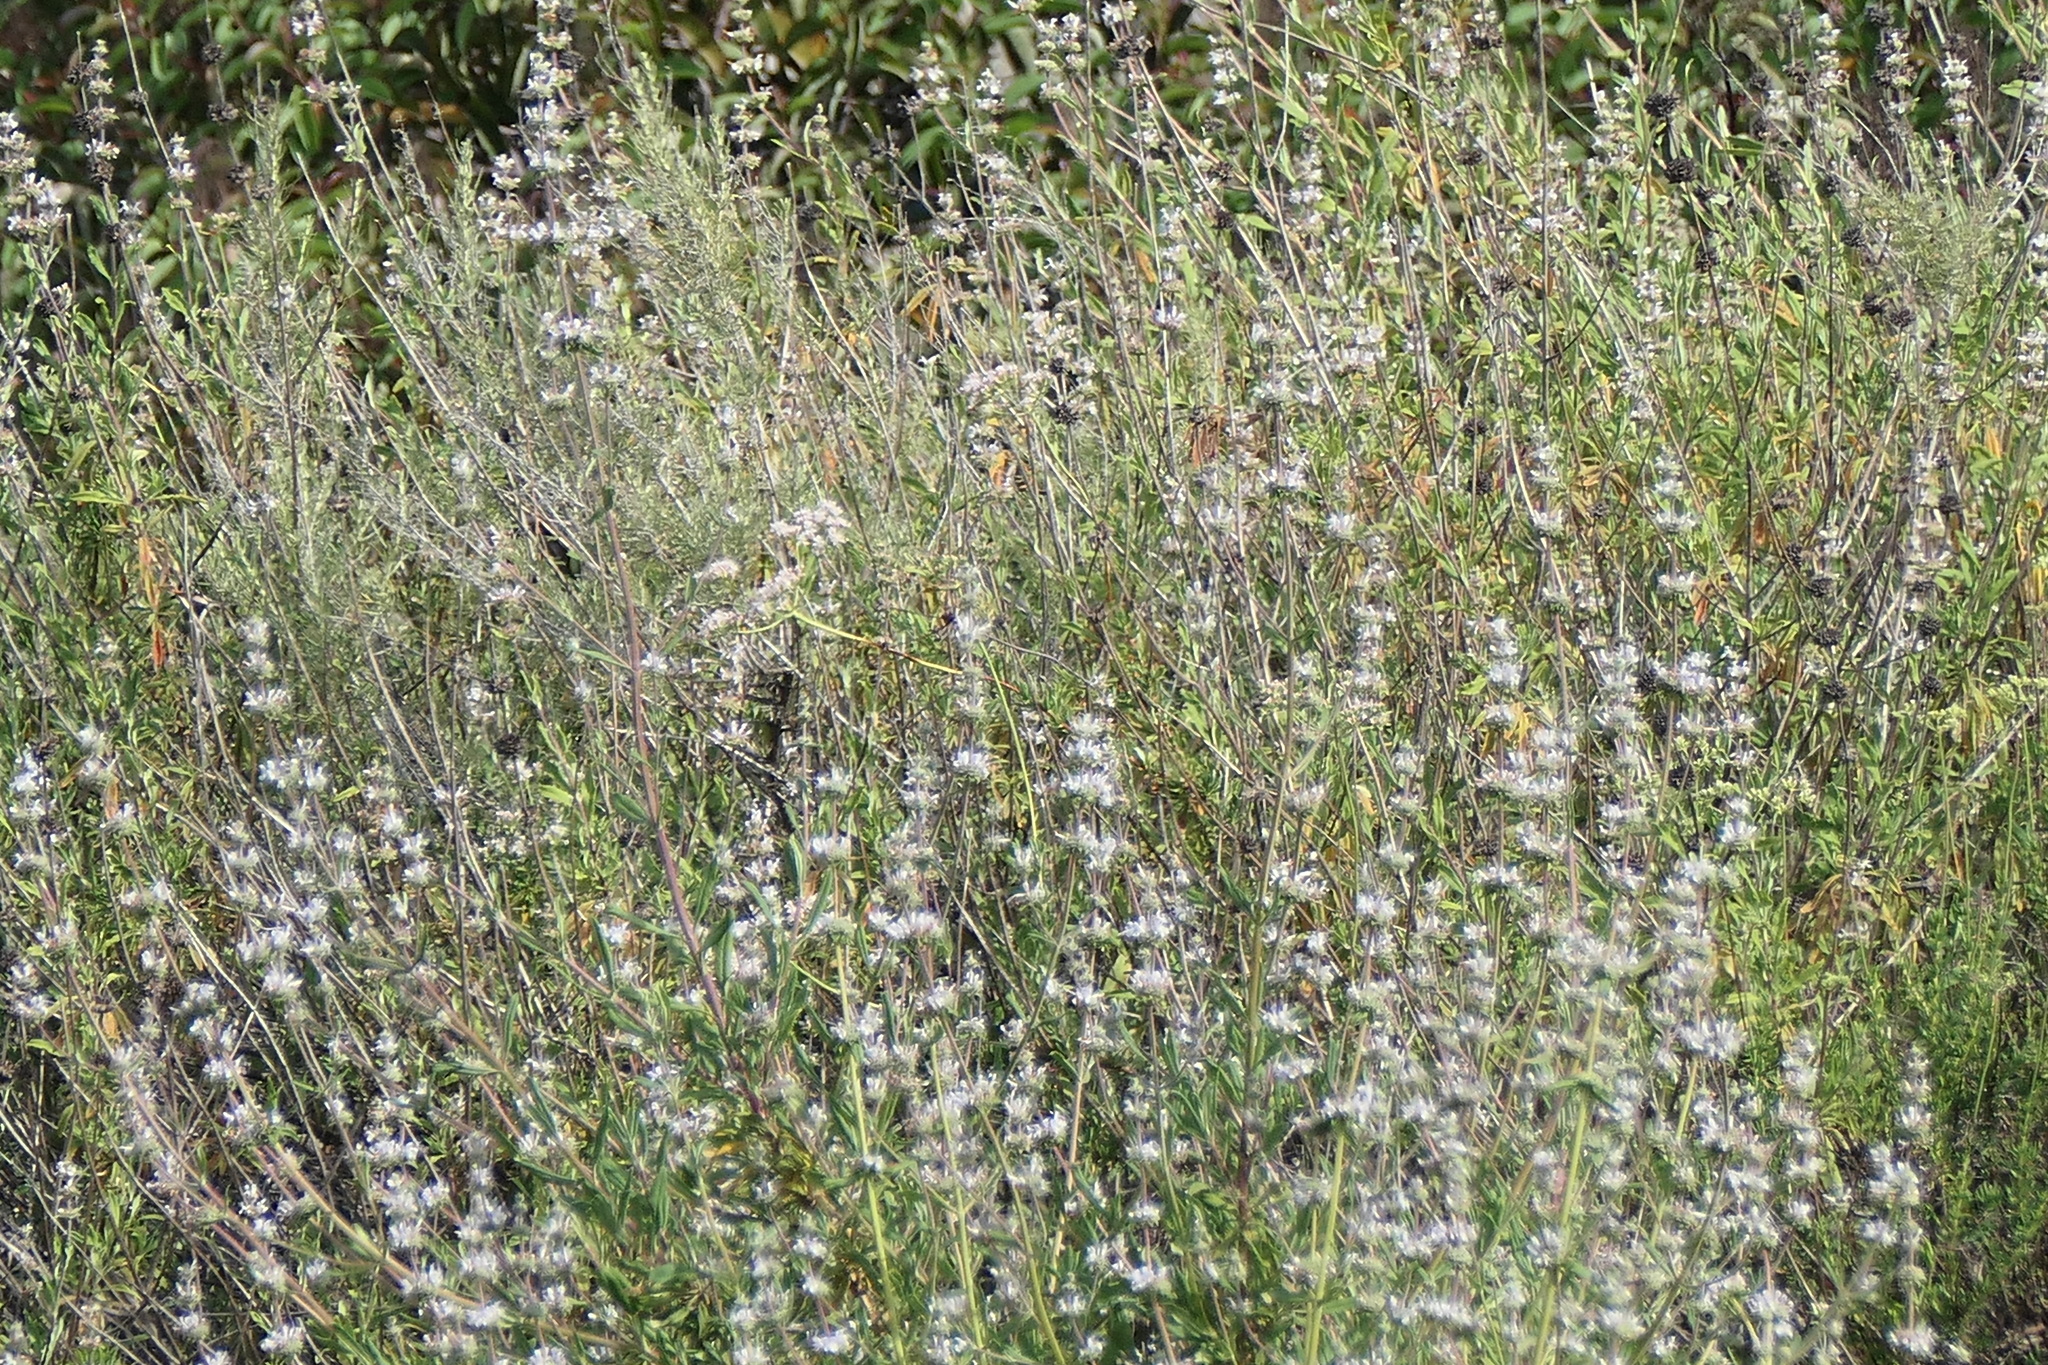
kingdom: Plantae
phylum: Tracheophyta
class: Magnoliopsida
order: Lamiales
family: Lamiaceae
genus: Salvia
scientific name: Salvia mellifera
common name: Black sage
